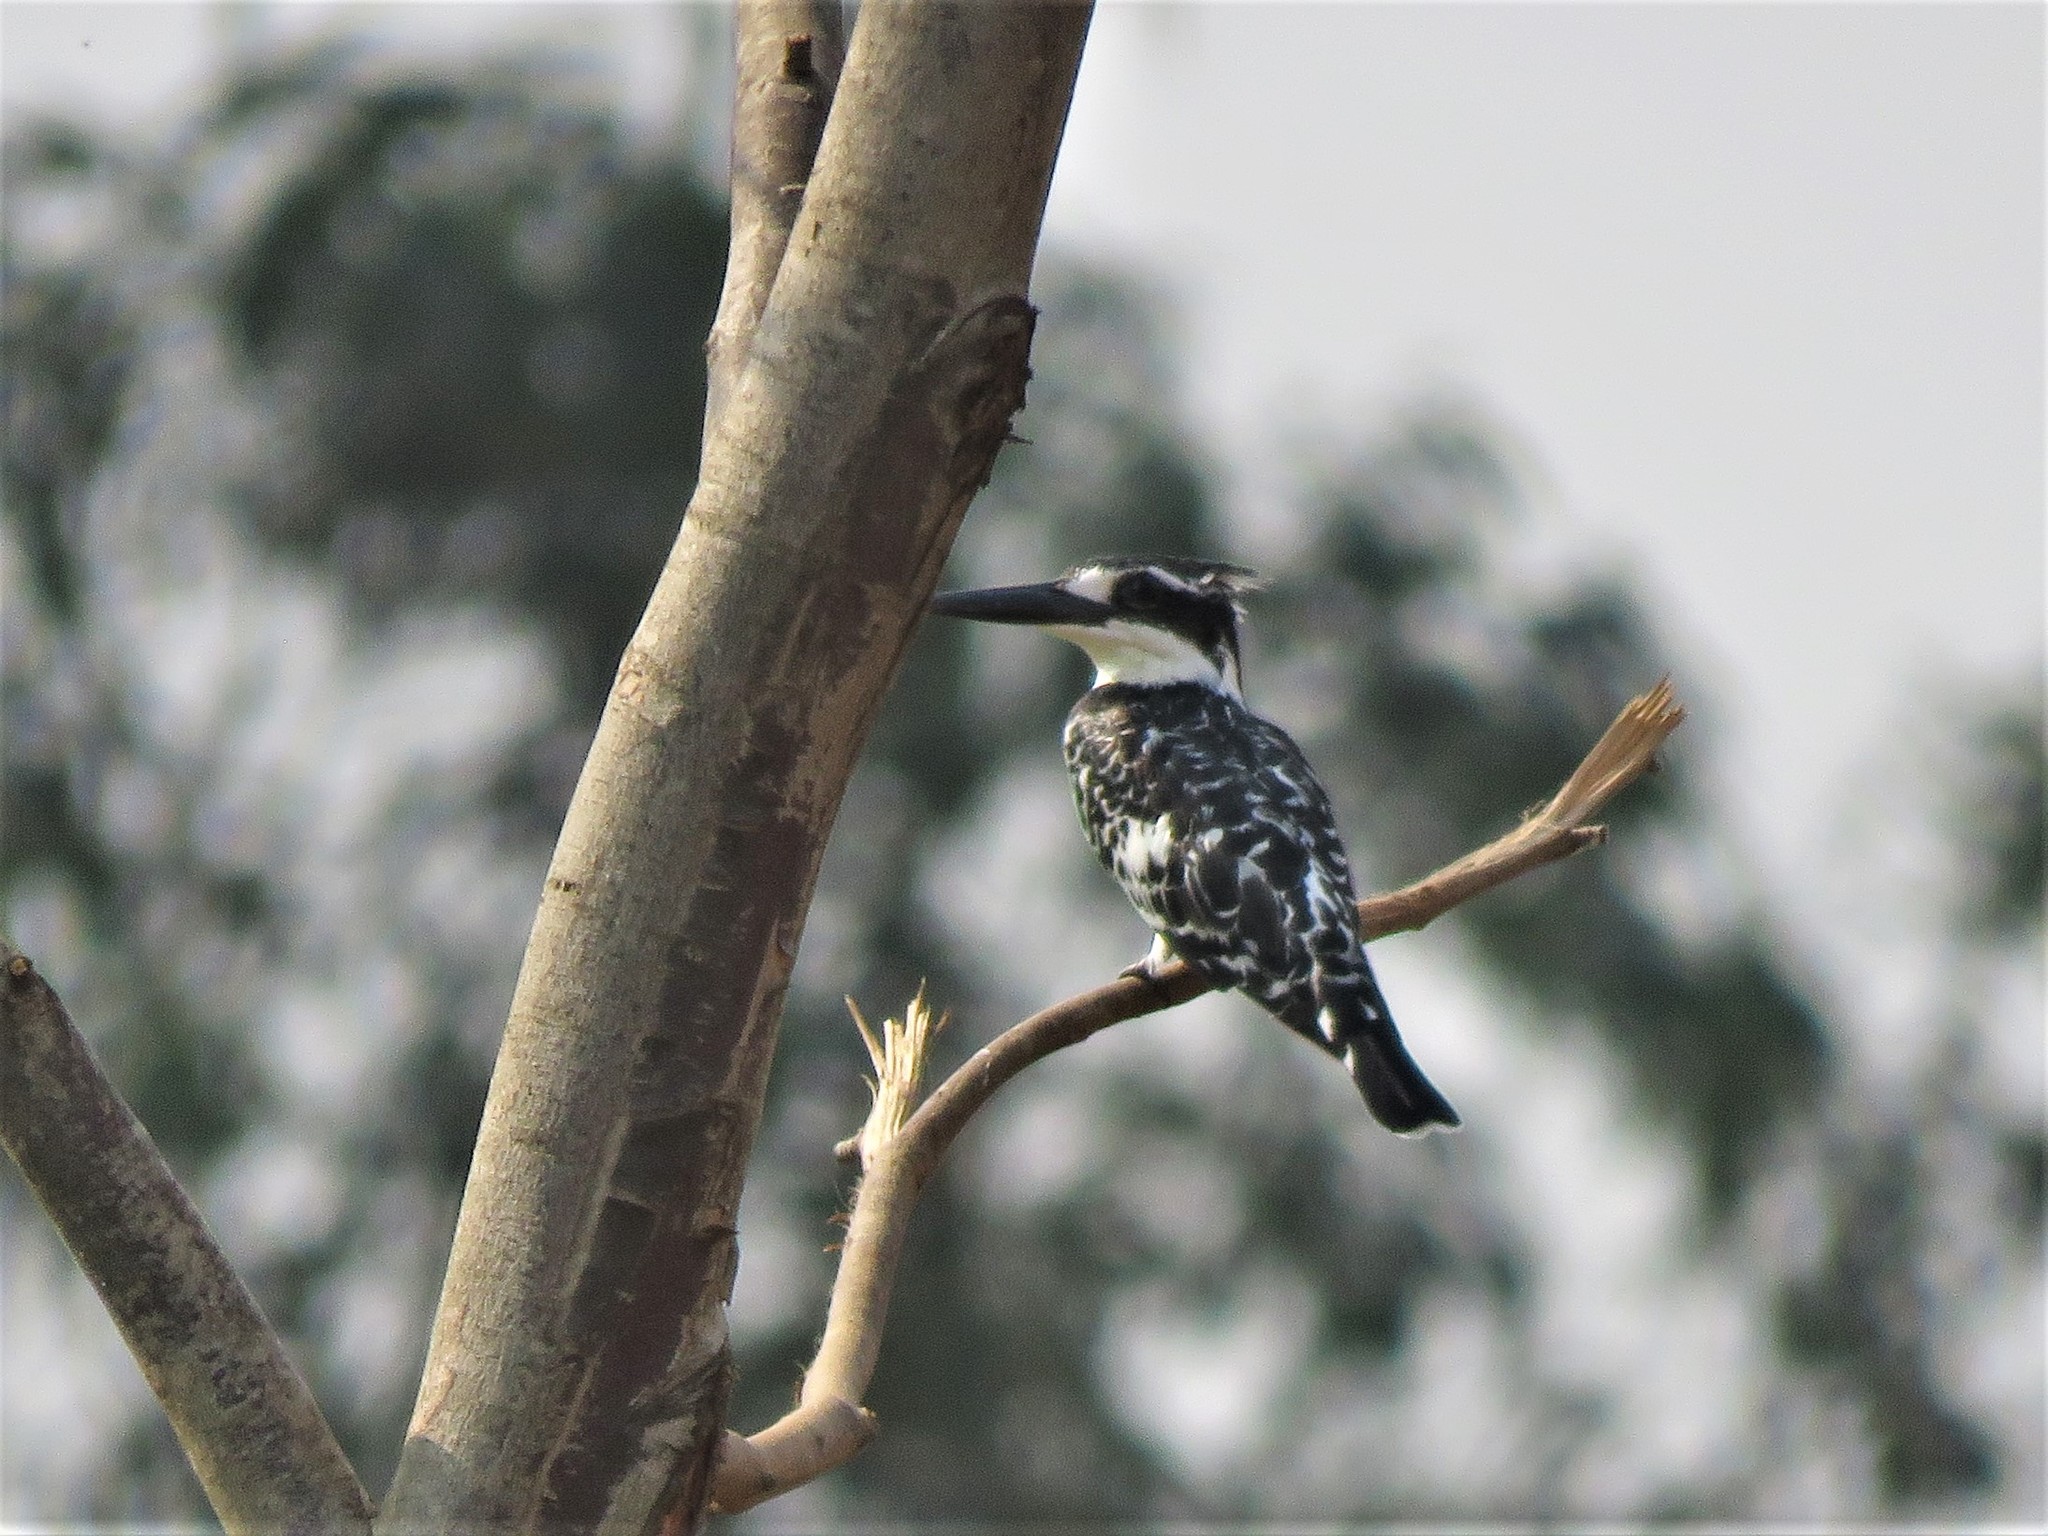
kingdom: Animalia
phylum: Chordata
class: Aves
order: Coraciiformes
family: Alcedinidae
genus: Ceryle
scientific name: Ceryle rudis
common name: Pied kingfisher
